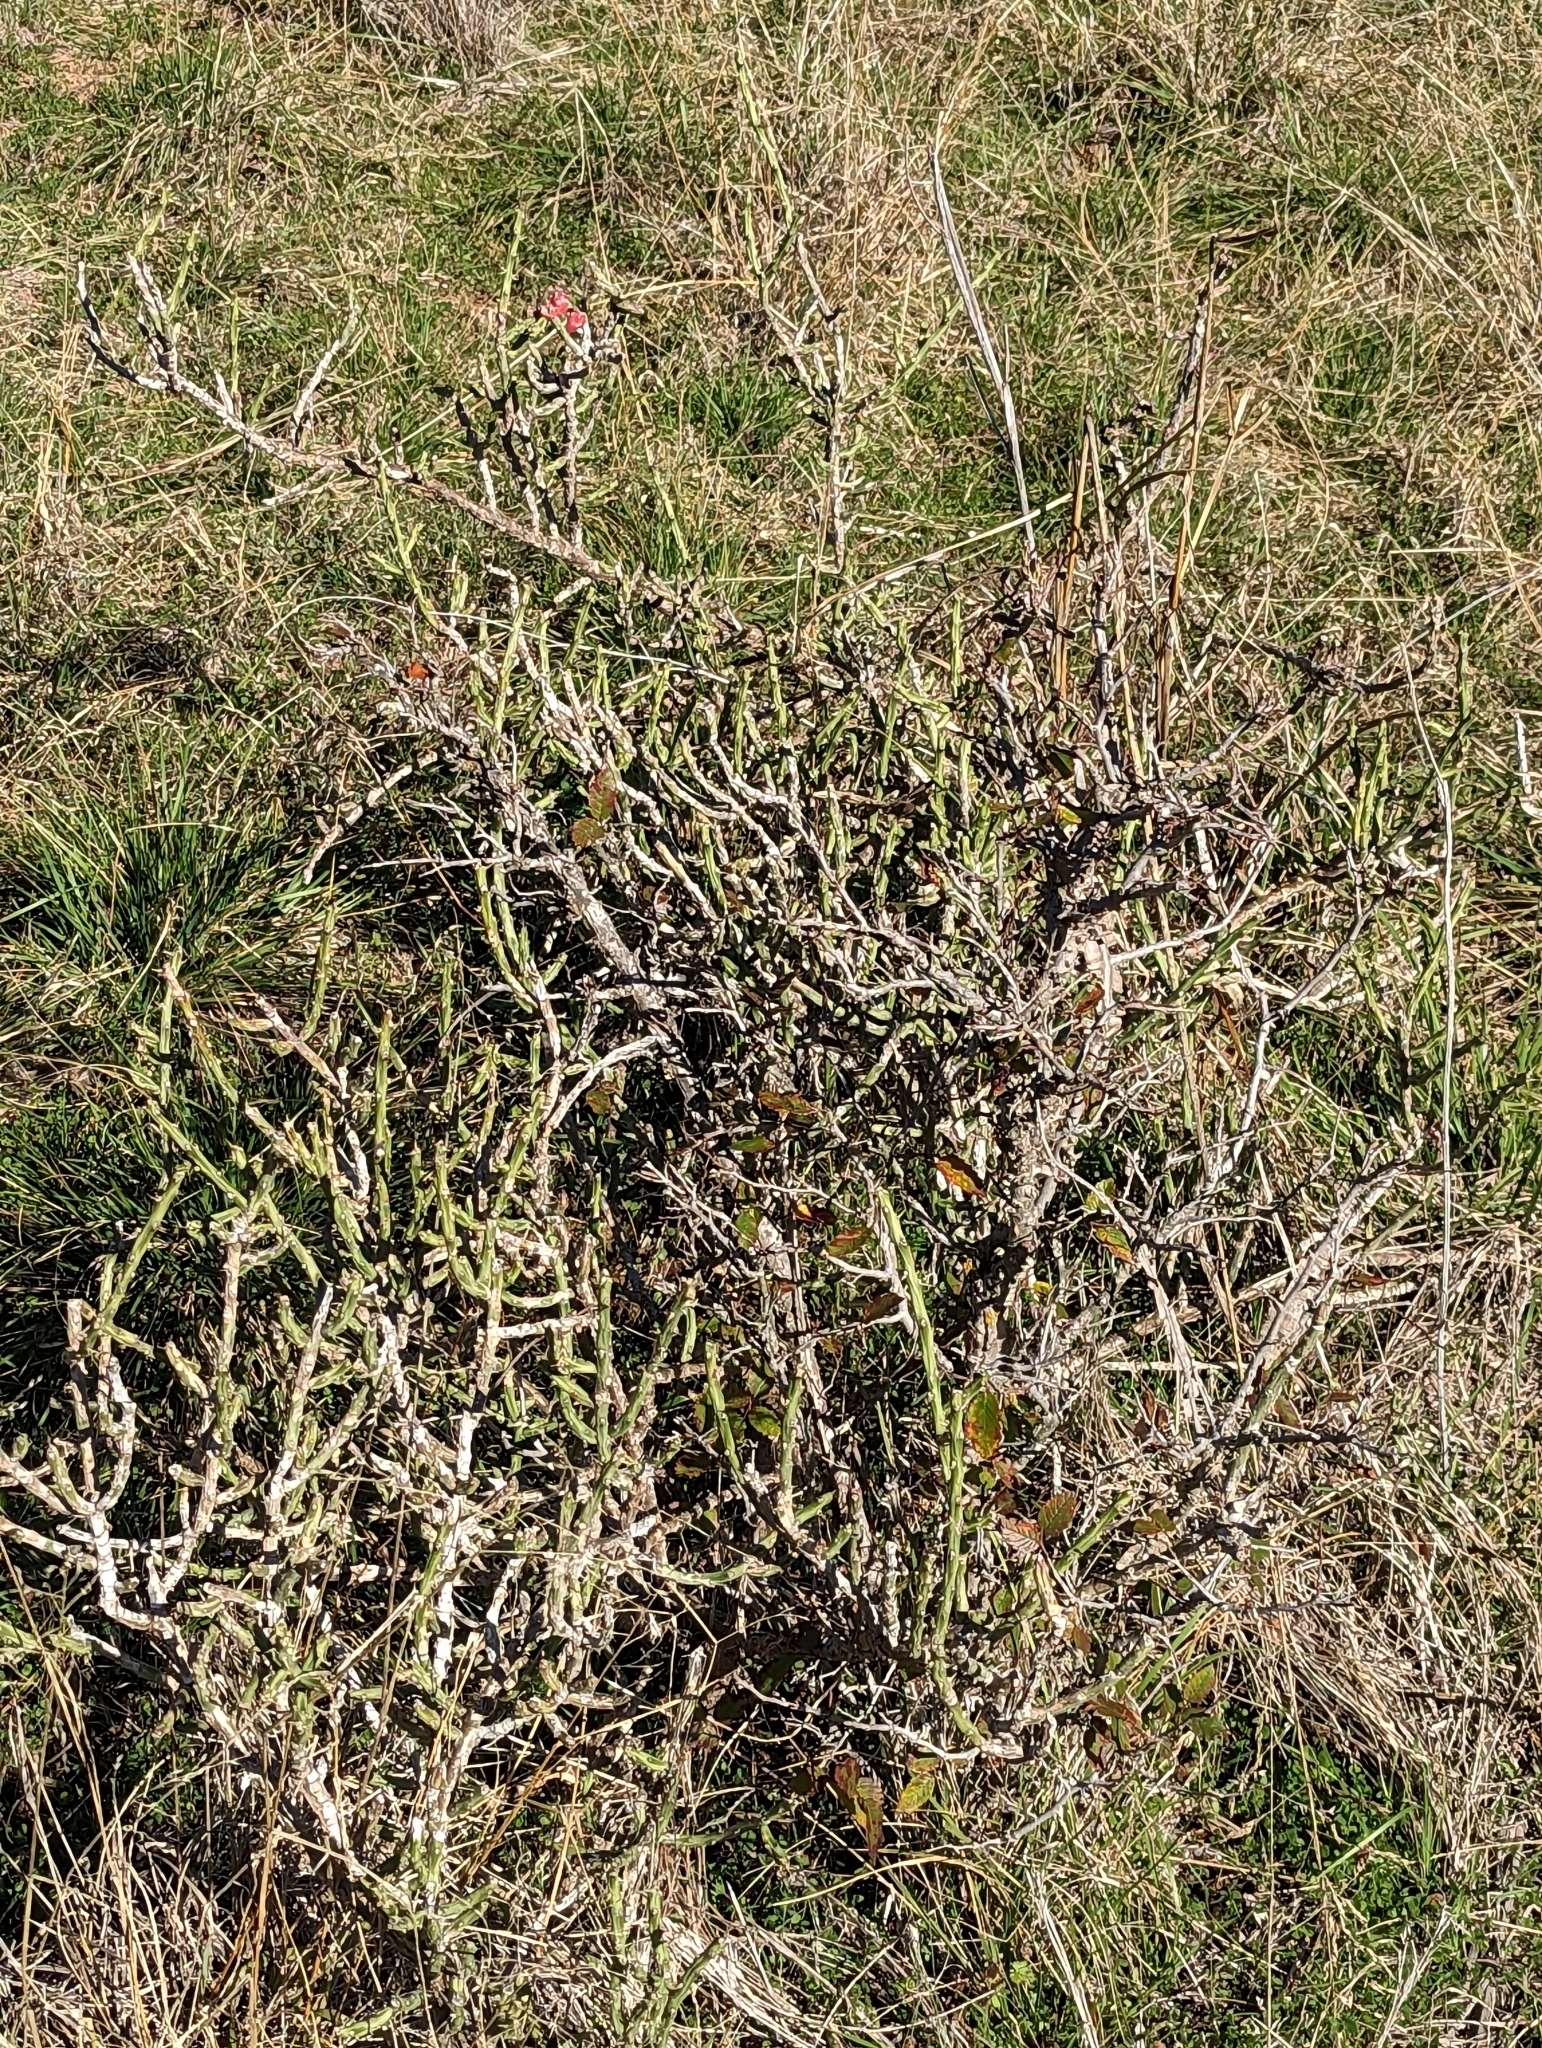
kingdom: Plantae
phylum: Tracheophyta
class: Magnoliopsida
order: Caryophyllales
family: Cactaceae
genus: Cylindropuntia
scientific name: Cylindropuntia leptocaulis
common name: Christmas cactus
